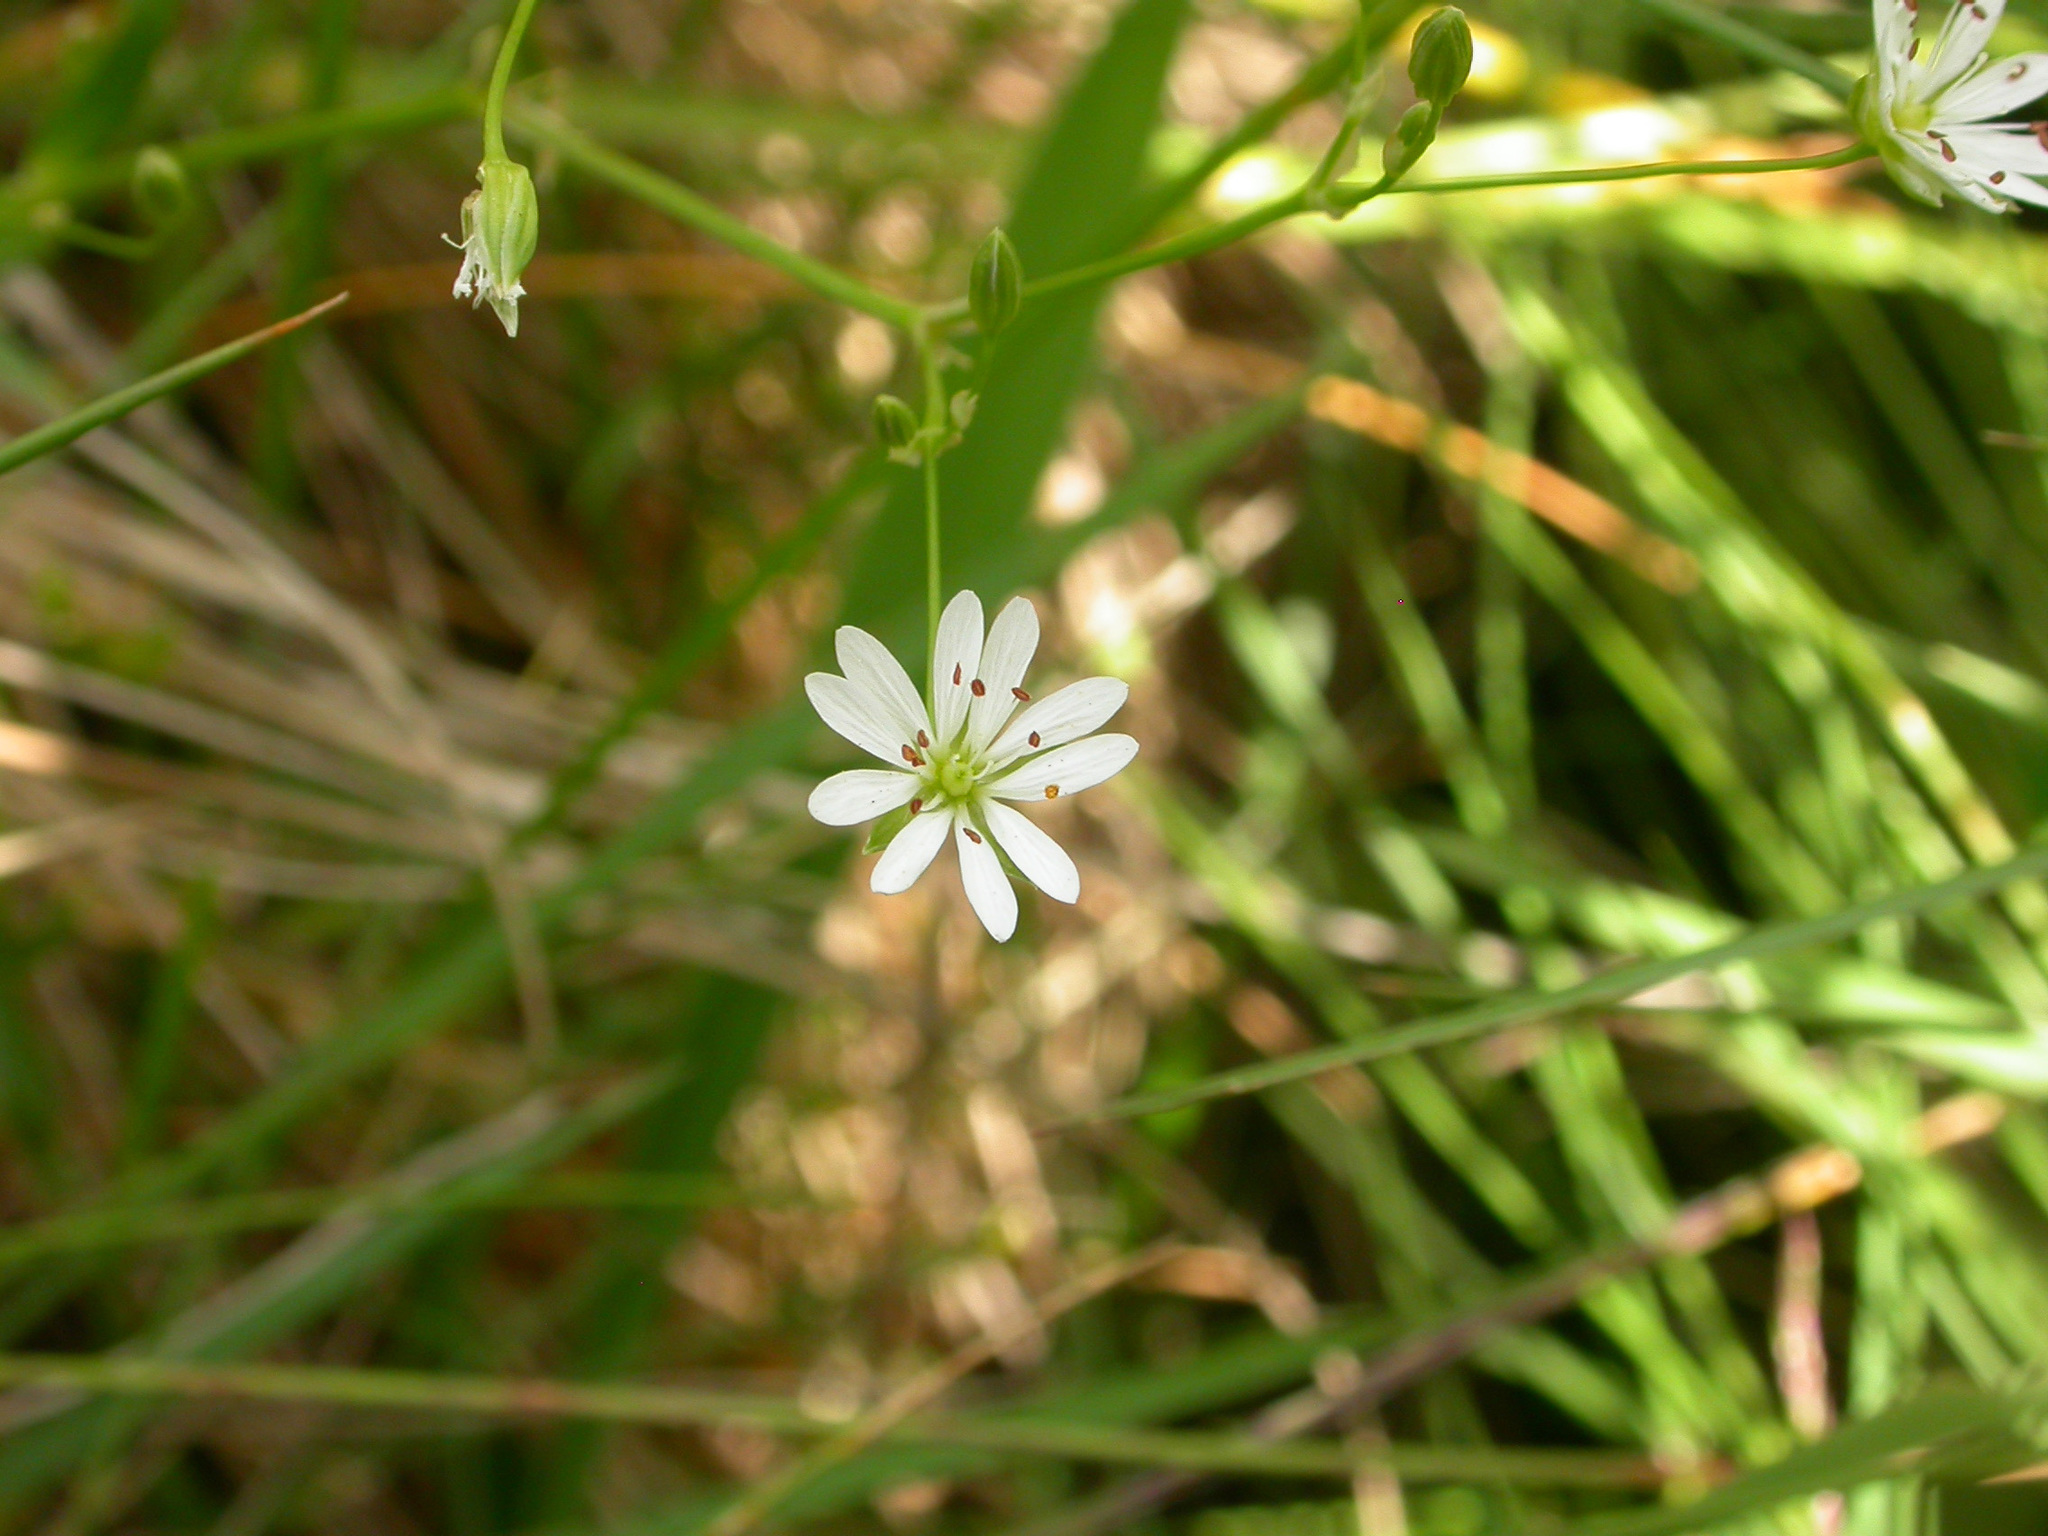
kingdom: Plantae
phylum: Tracheophyta
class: Magnoliopsida
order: Caryophyllales
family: Caryophyllaceae
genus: Stellaria
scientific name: Stellaria graminea
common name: Grass-like starwort
